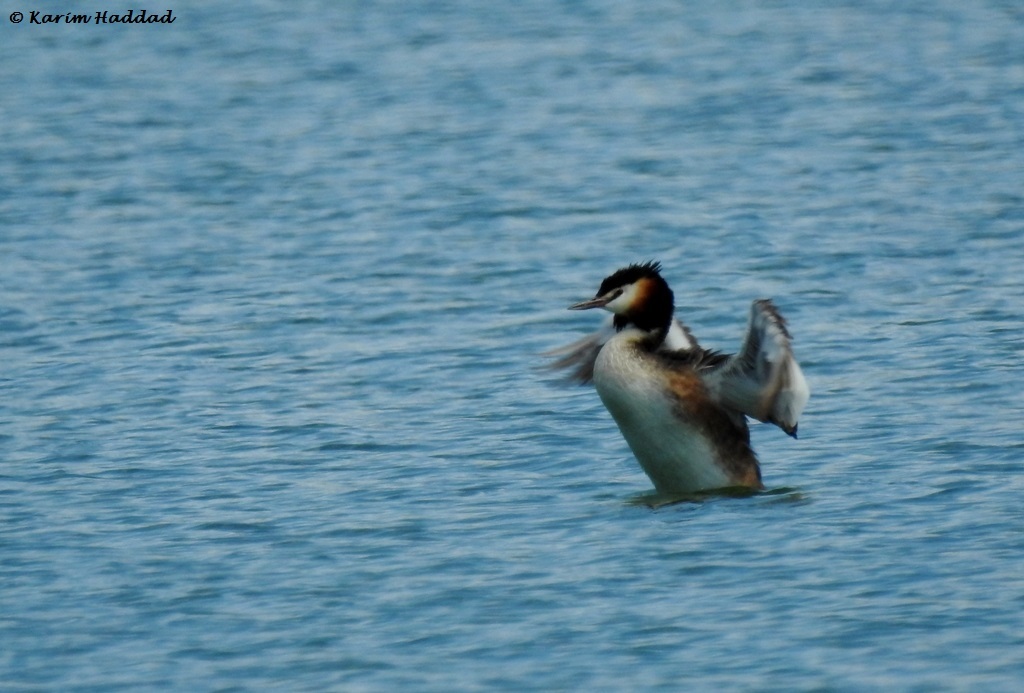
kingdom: Animalia
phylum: Chordata
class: Aves
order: Podicipediformes
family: Podicipedidae
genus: Podiceps
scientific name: Podiceps cristatus
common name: Great crested grebe
